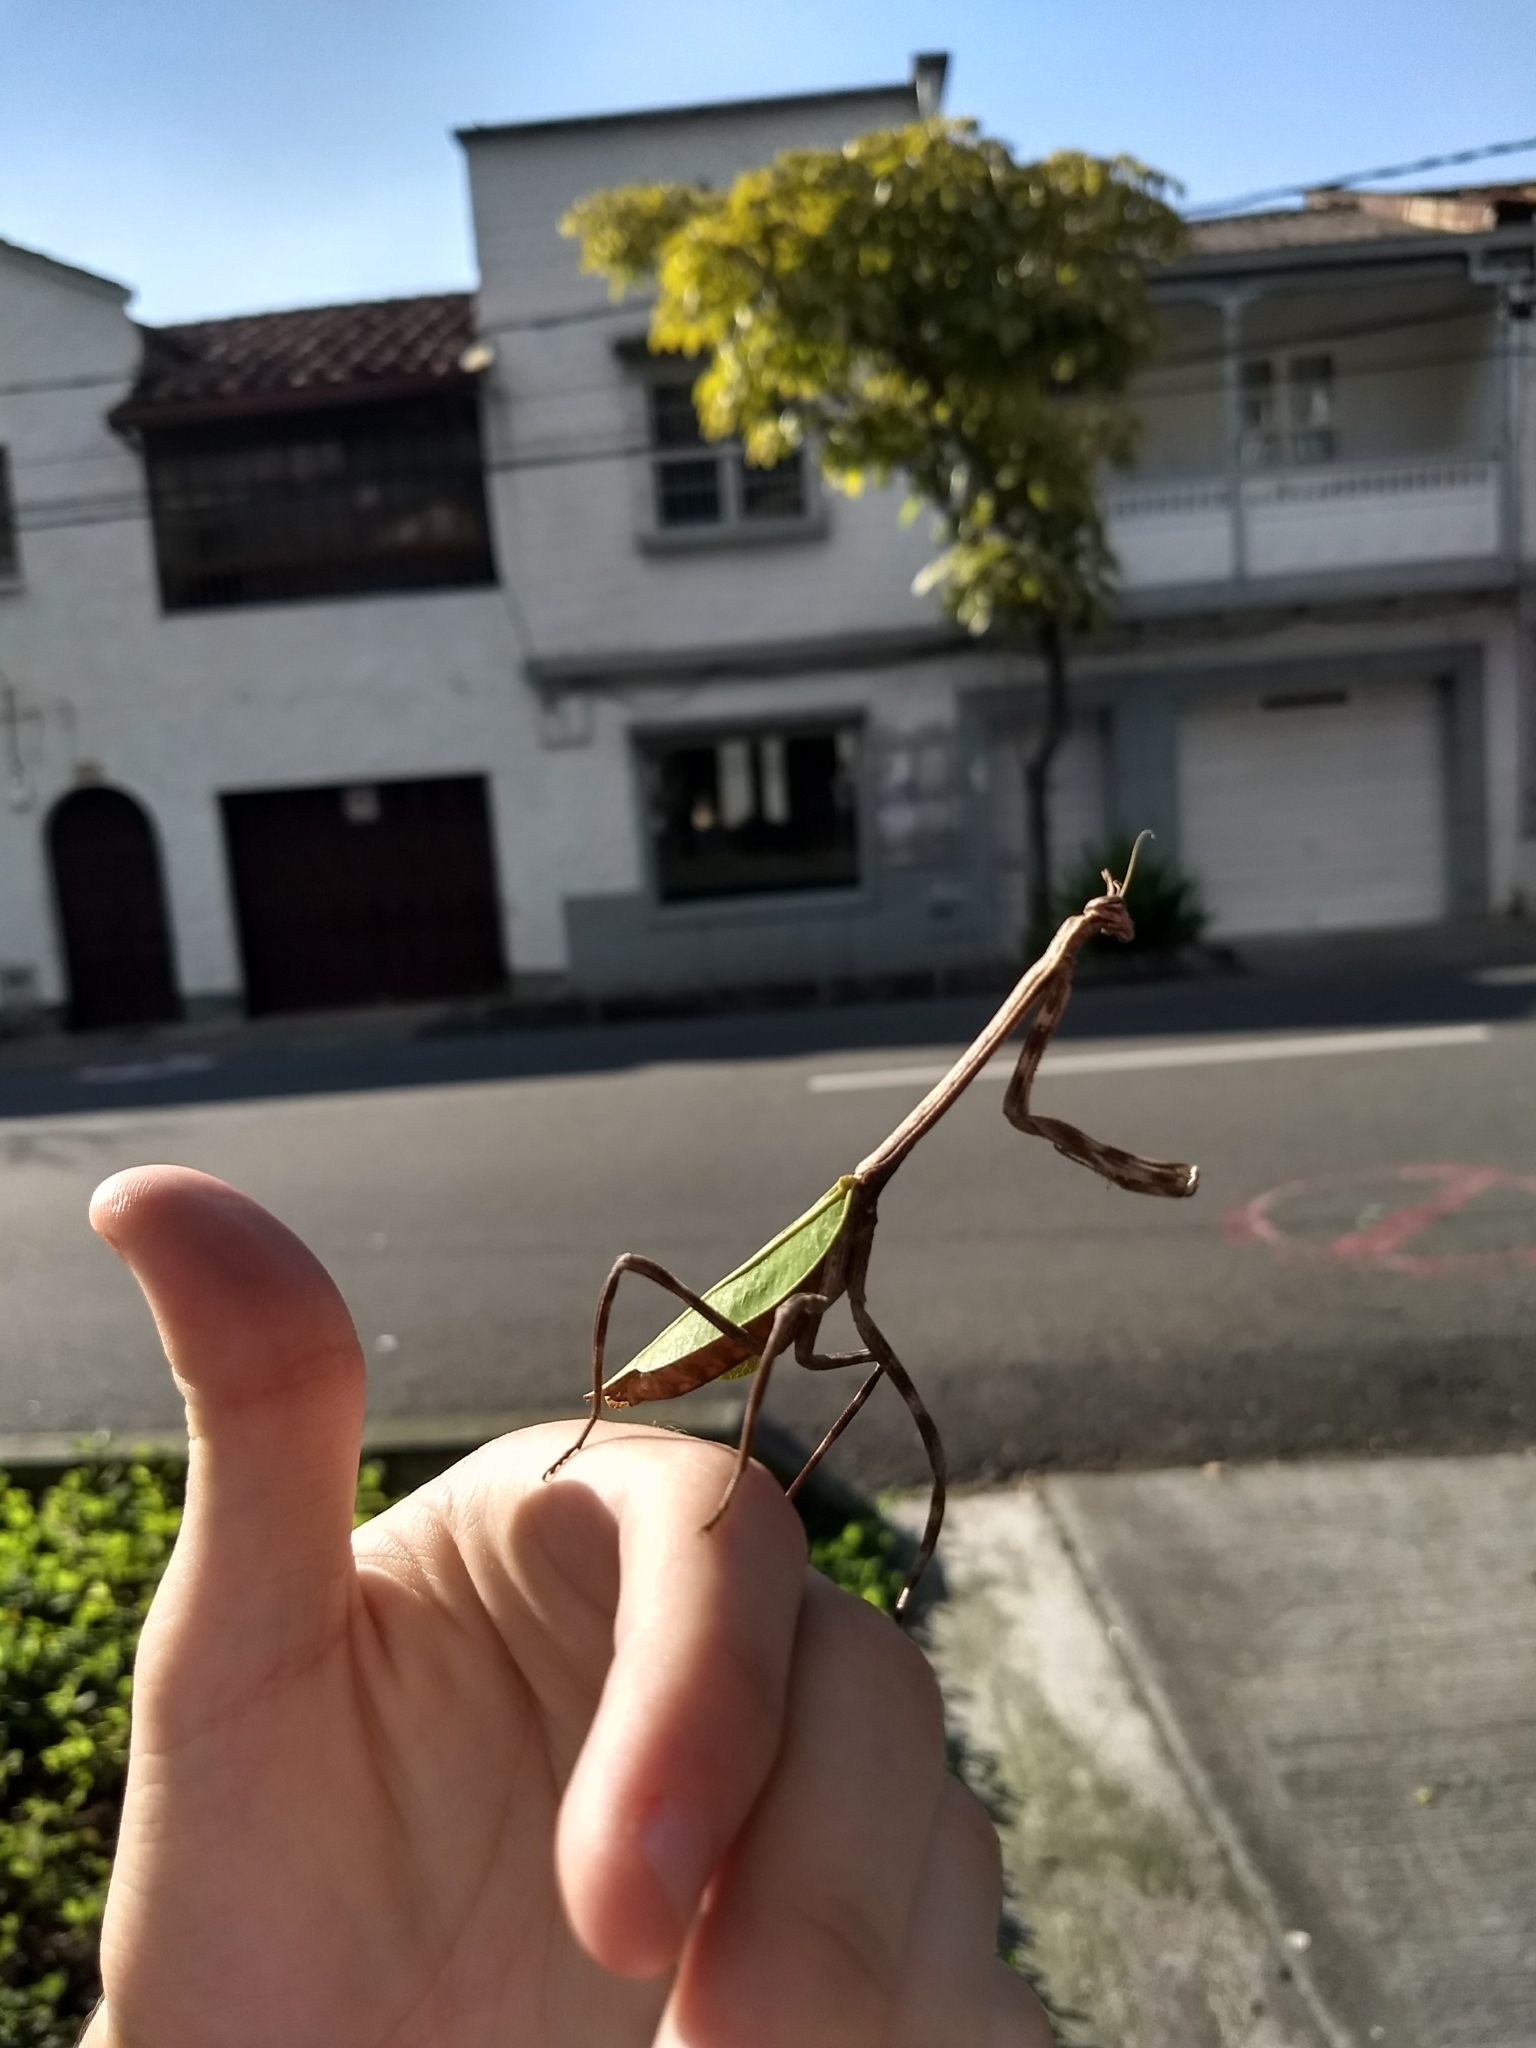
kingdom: Animalia
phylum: Arthropoda
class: Insecta
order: Mantodea
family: Mantidae
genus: Pseudovates
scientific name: Pseudovates chlorophaea
